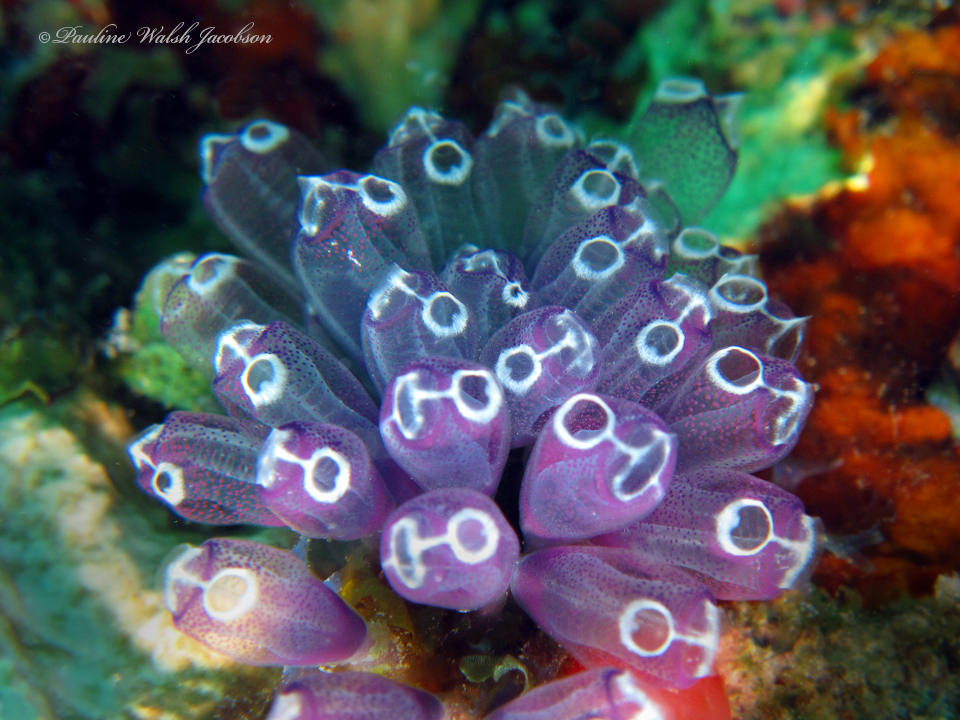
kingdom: Animalia
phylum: Chordata
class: Ascidiacea
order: Aplousobranchia
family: Clavelinidae
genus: Clavelina
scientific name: Clavelina puertosecensis
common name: Blue bell tunicate
